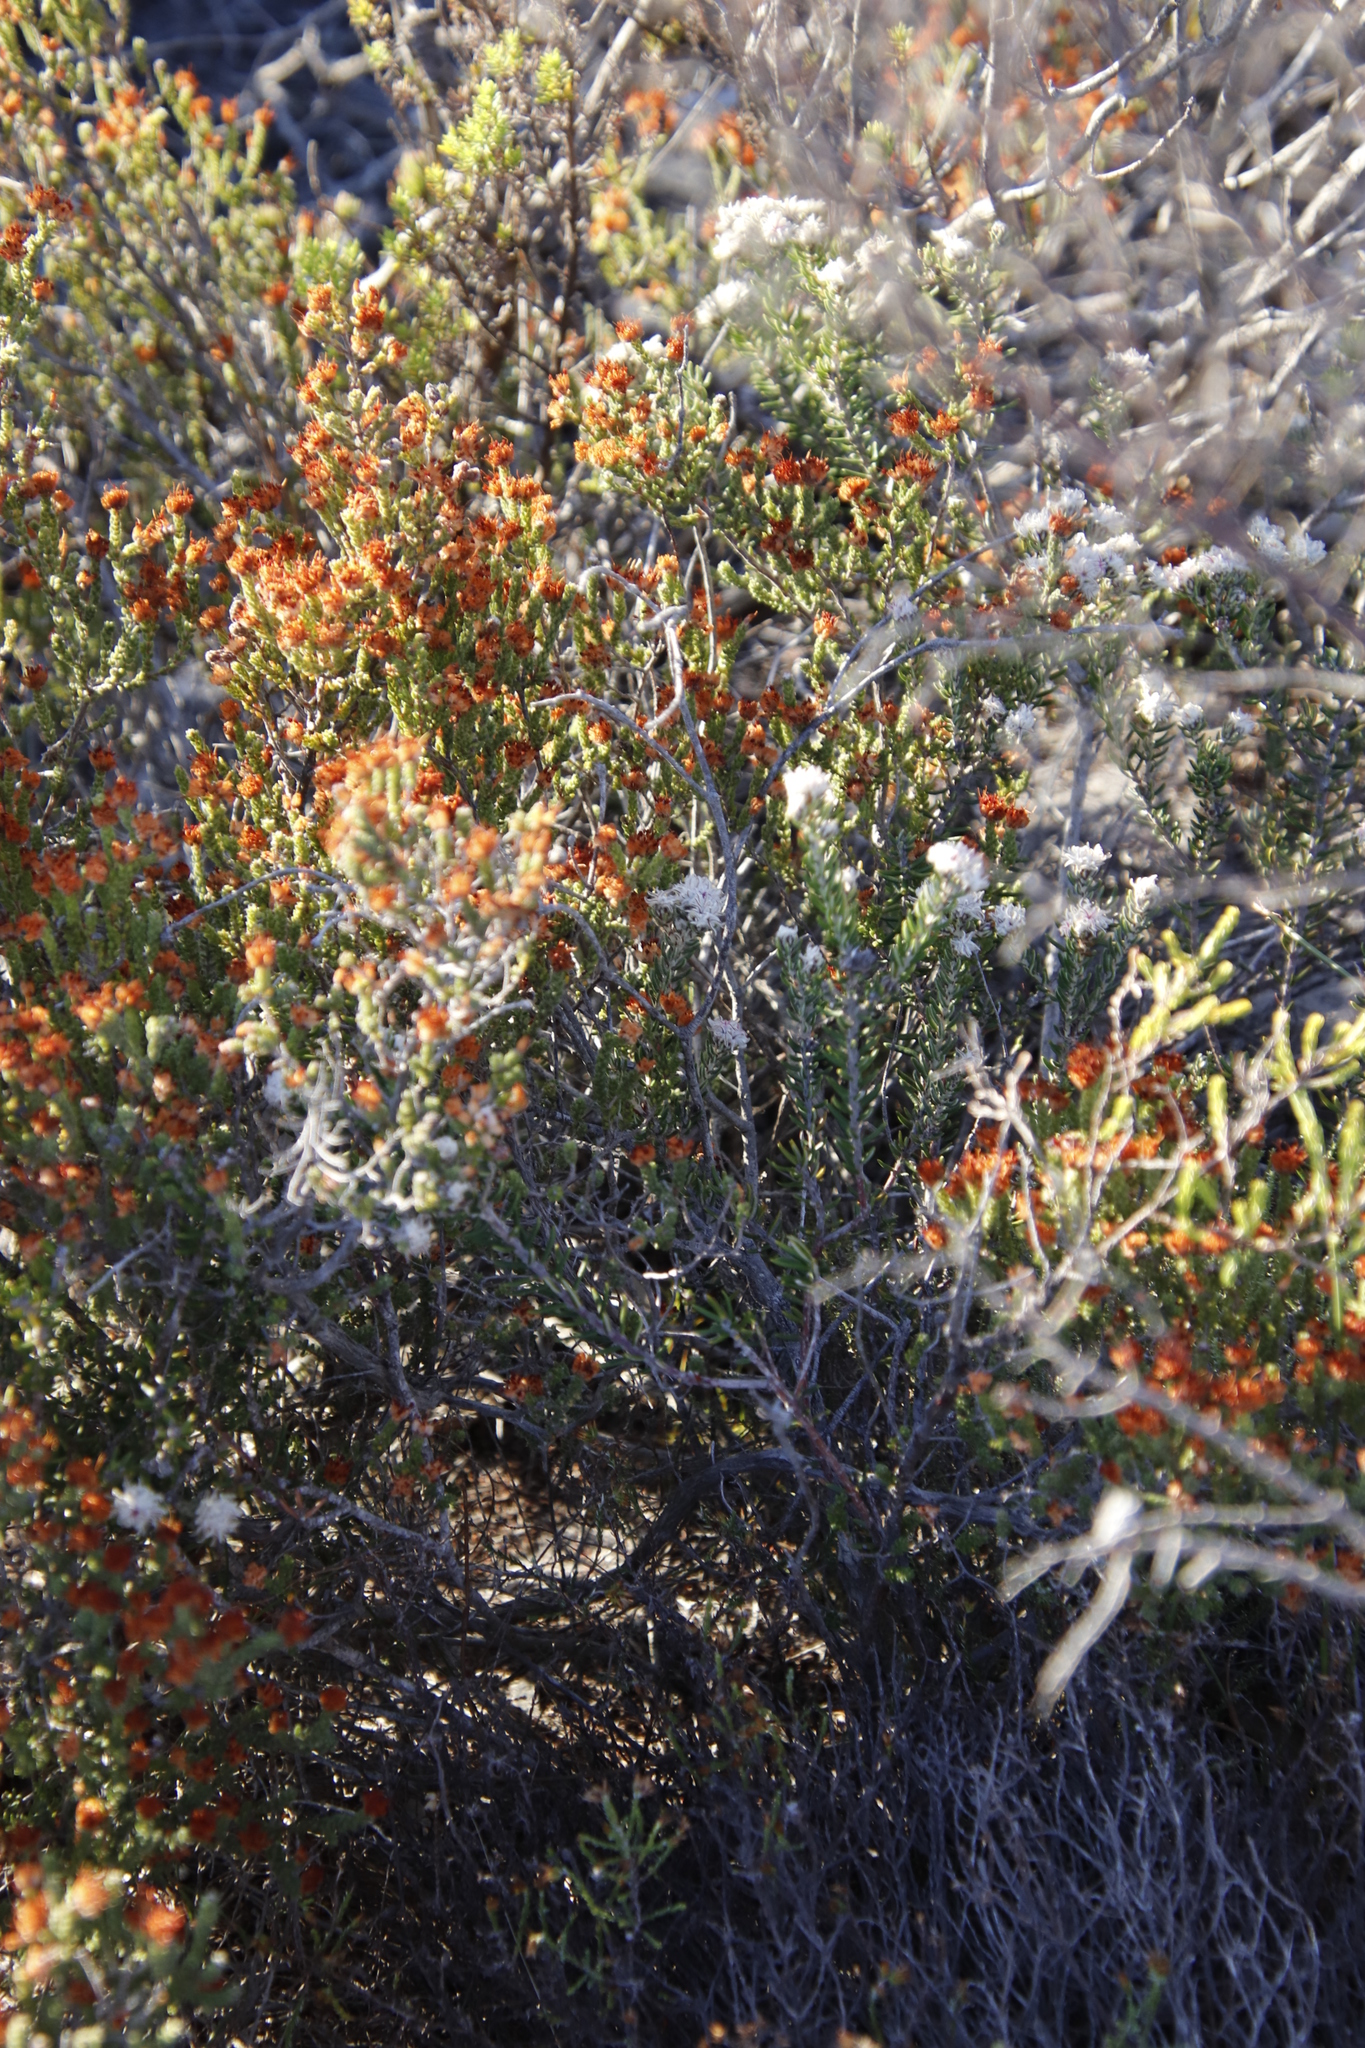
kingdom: Plantae
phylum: Tracheophyta
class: Magnoliopsida
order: Rosales
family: Rhamnaceae
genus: Trichocephalus
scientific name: Trichocephalus stipularis
